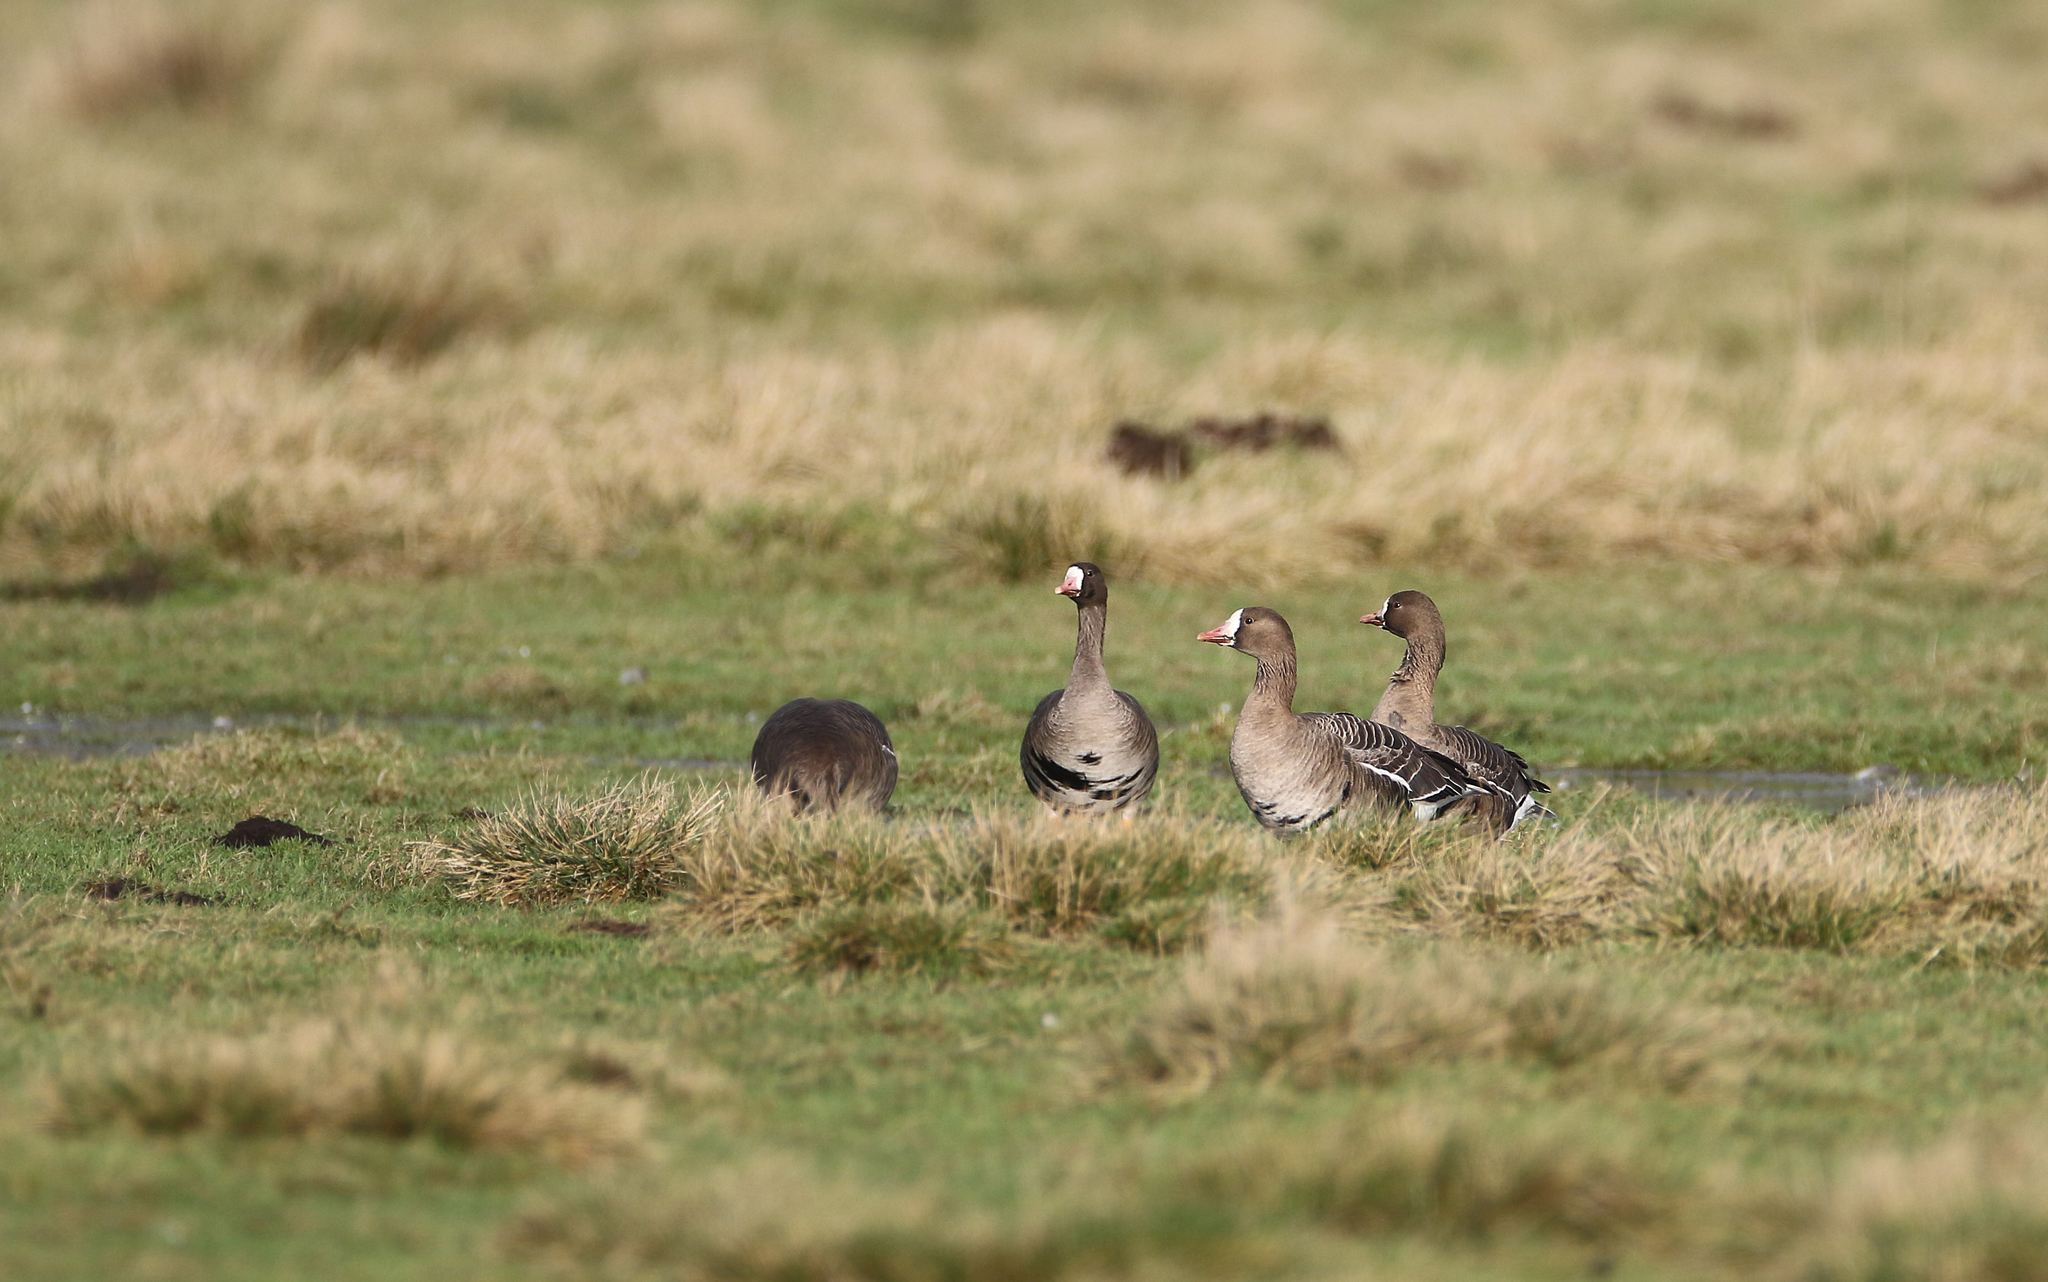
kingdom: Animalia
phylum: Chordata
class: Aves
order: Anseriformes
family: Anatidae
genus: Anser
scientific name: Anser albifrons
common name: Greater white-fronted goose
